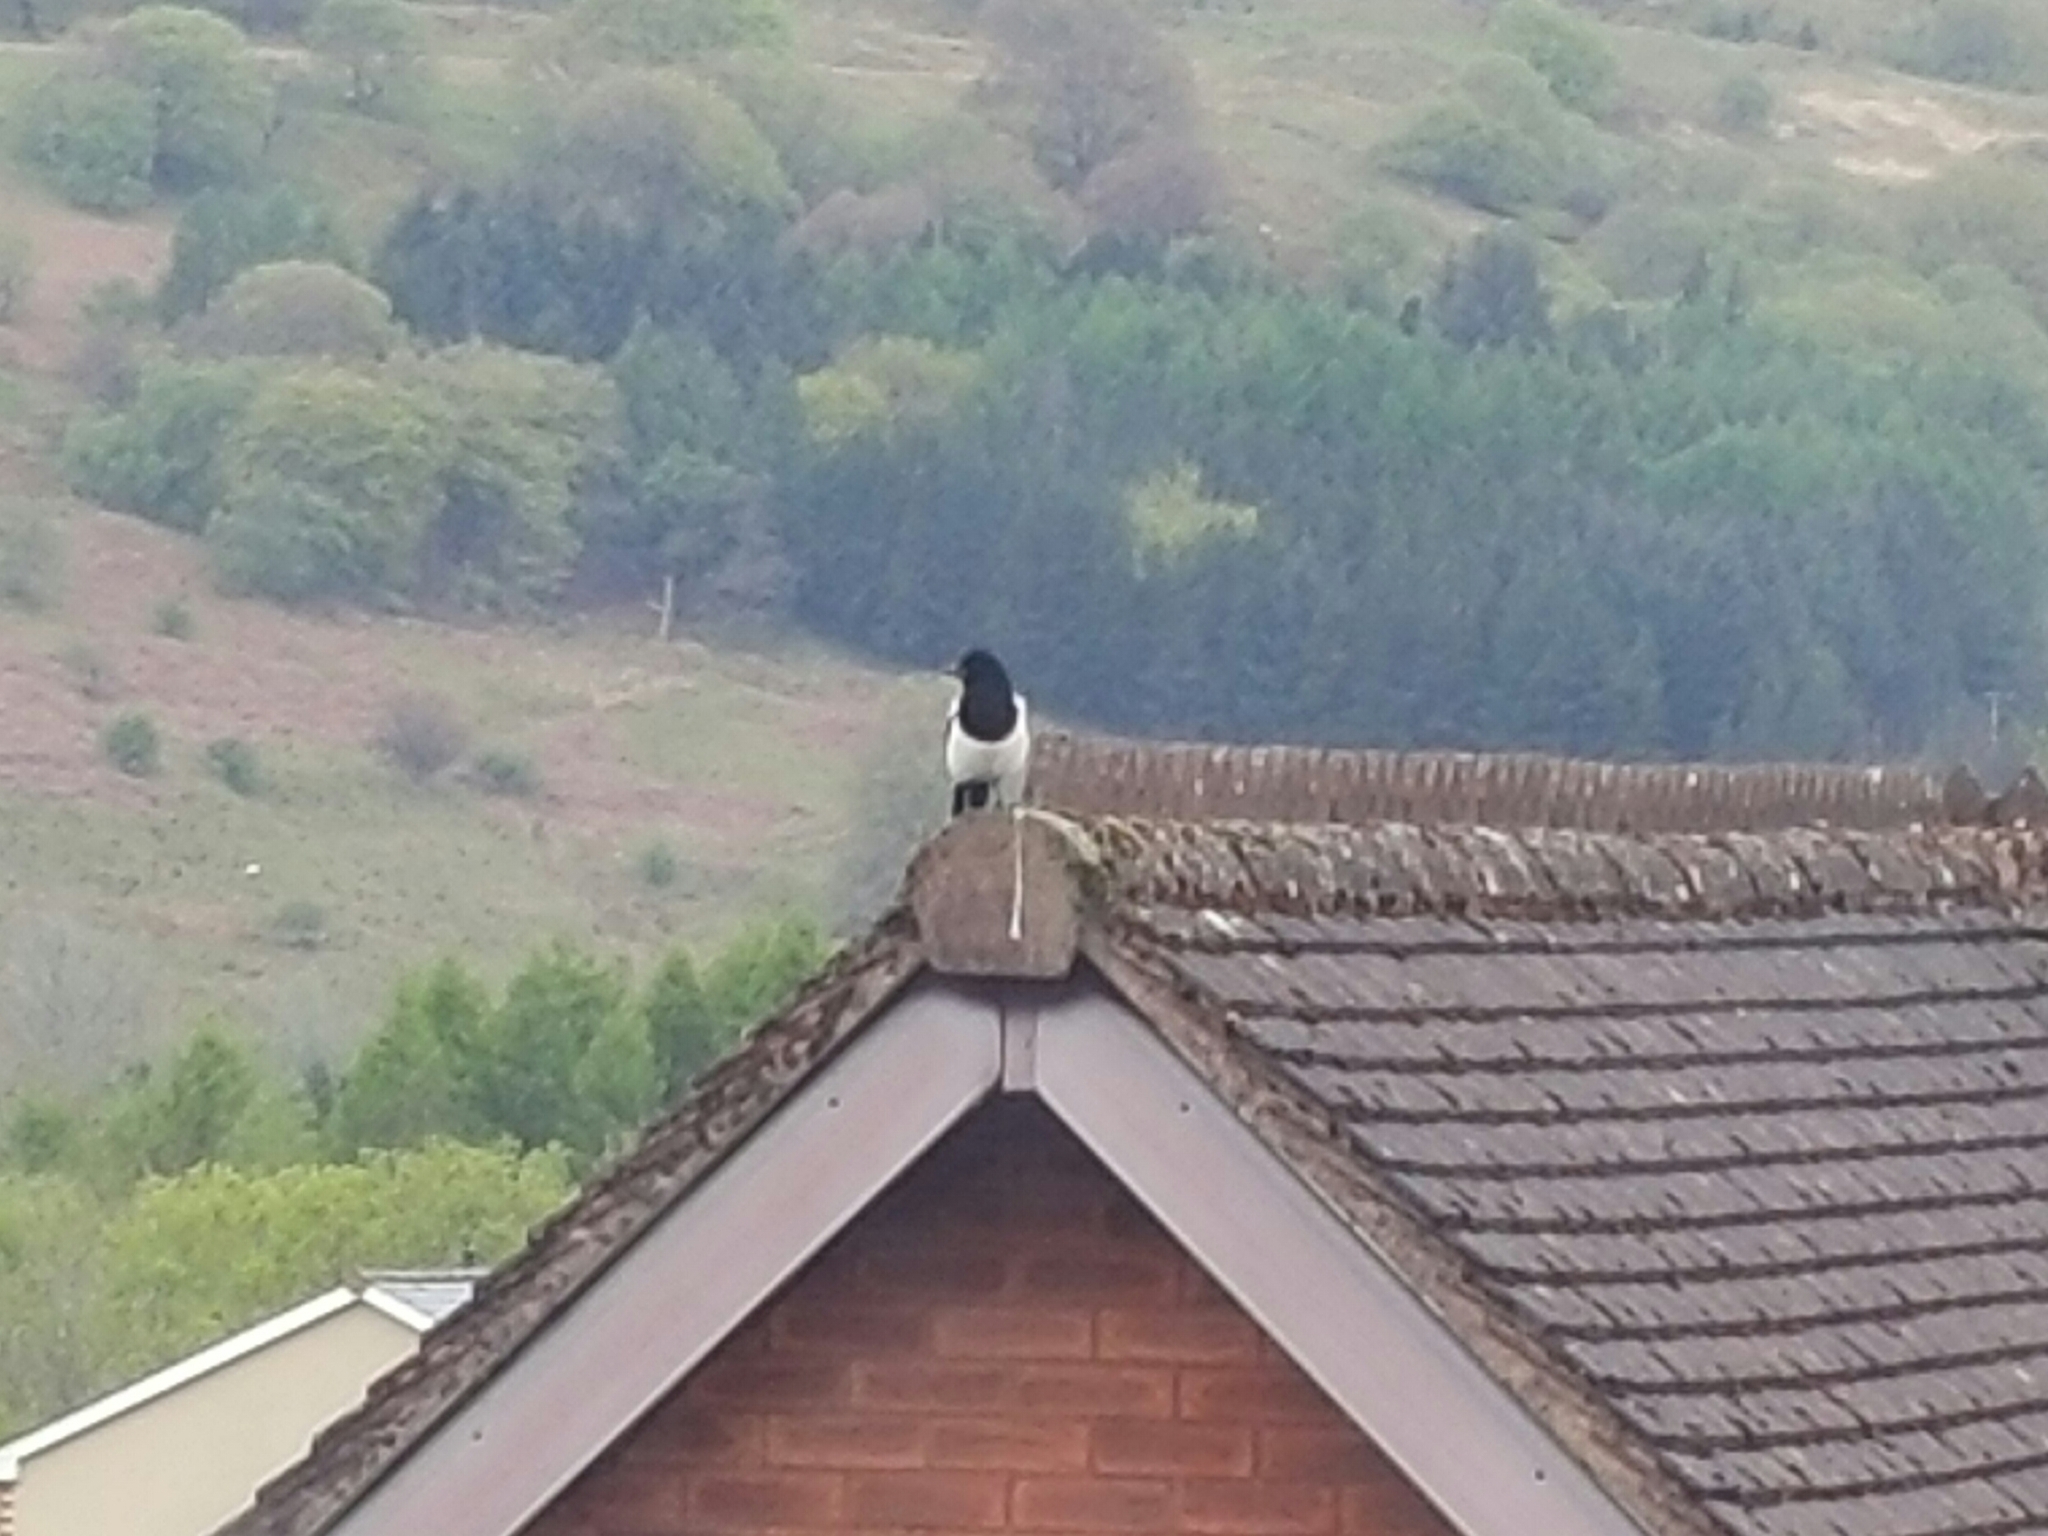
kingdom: Animalia
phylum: Chordata
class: Aves
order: Passeriformes
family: Corvidae
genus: Pica
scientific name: Pica pica
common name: Eurasian magpie
